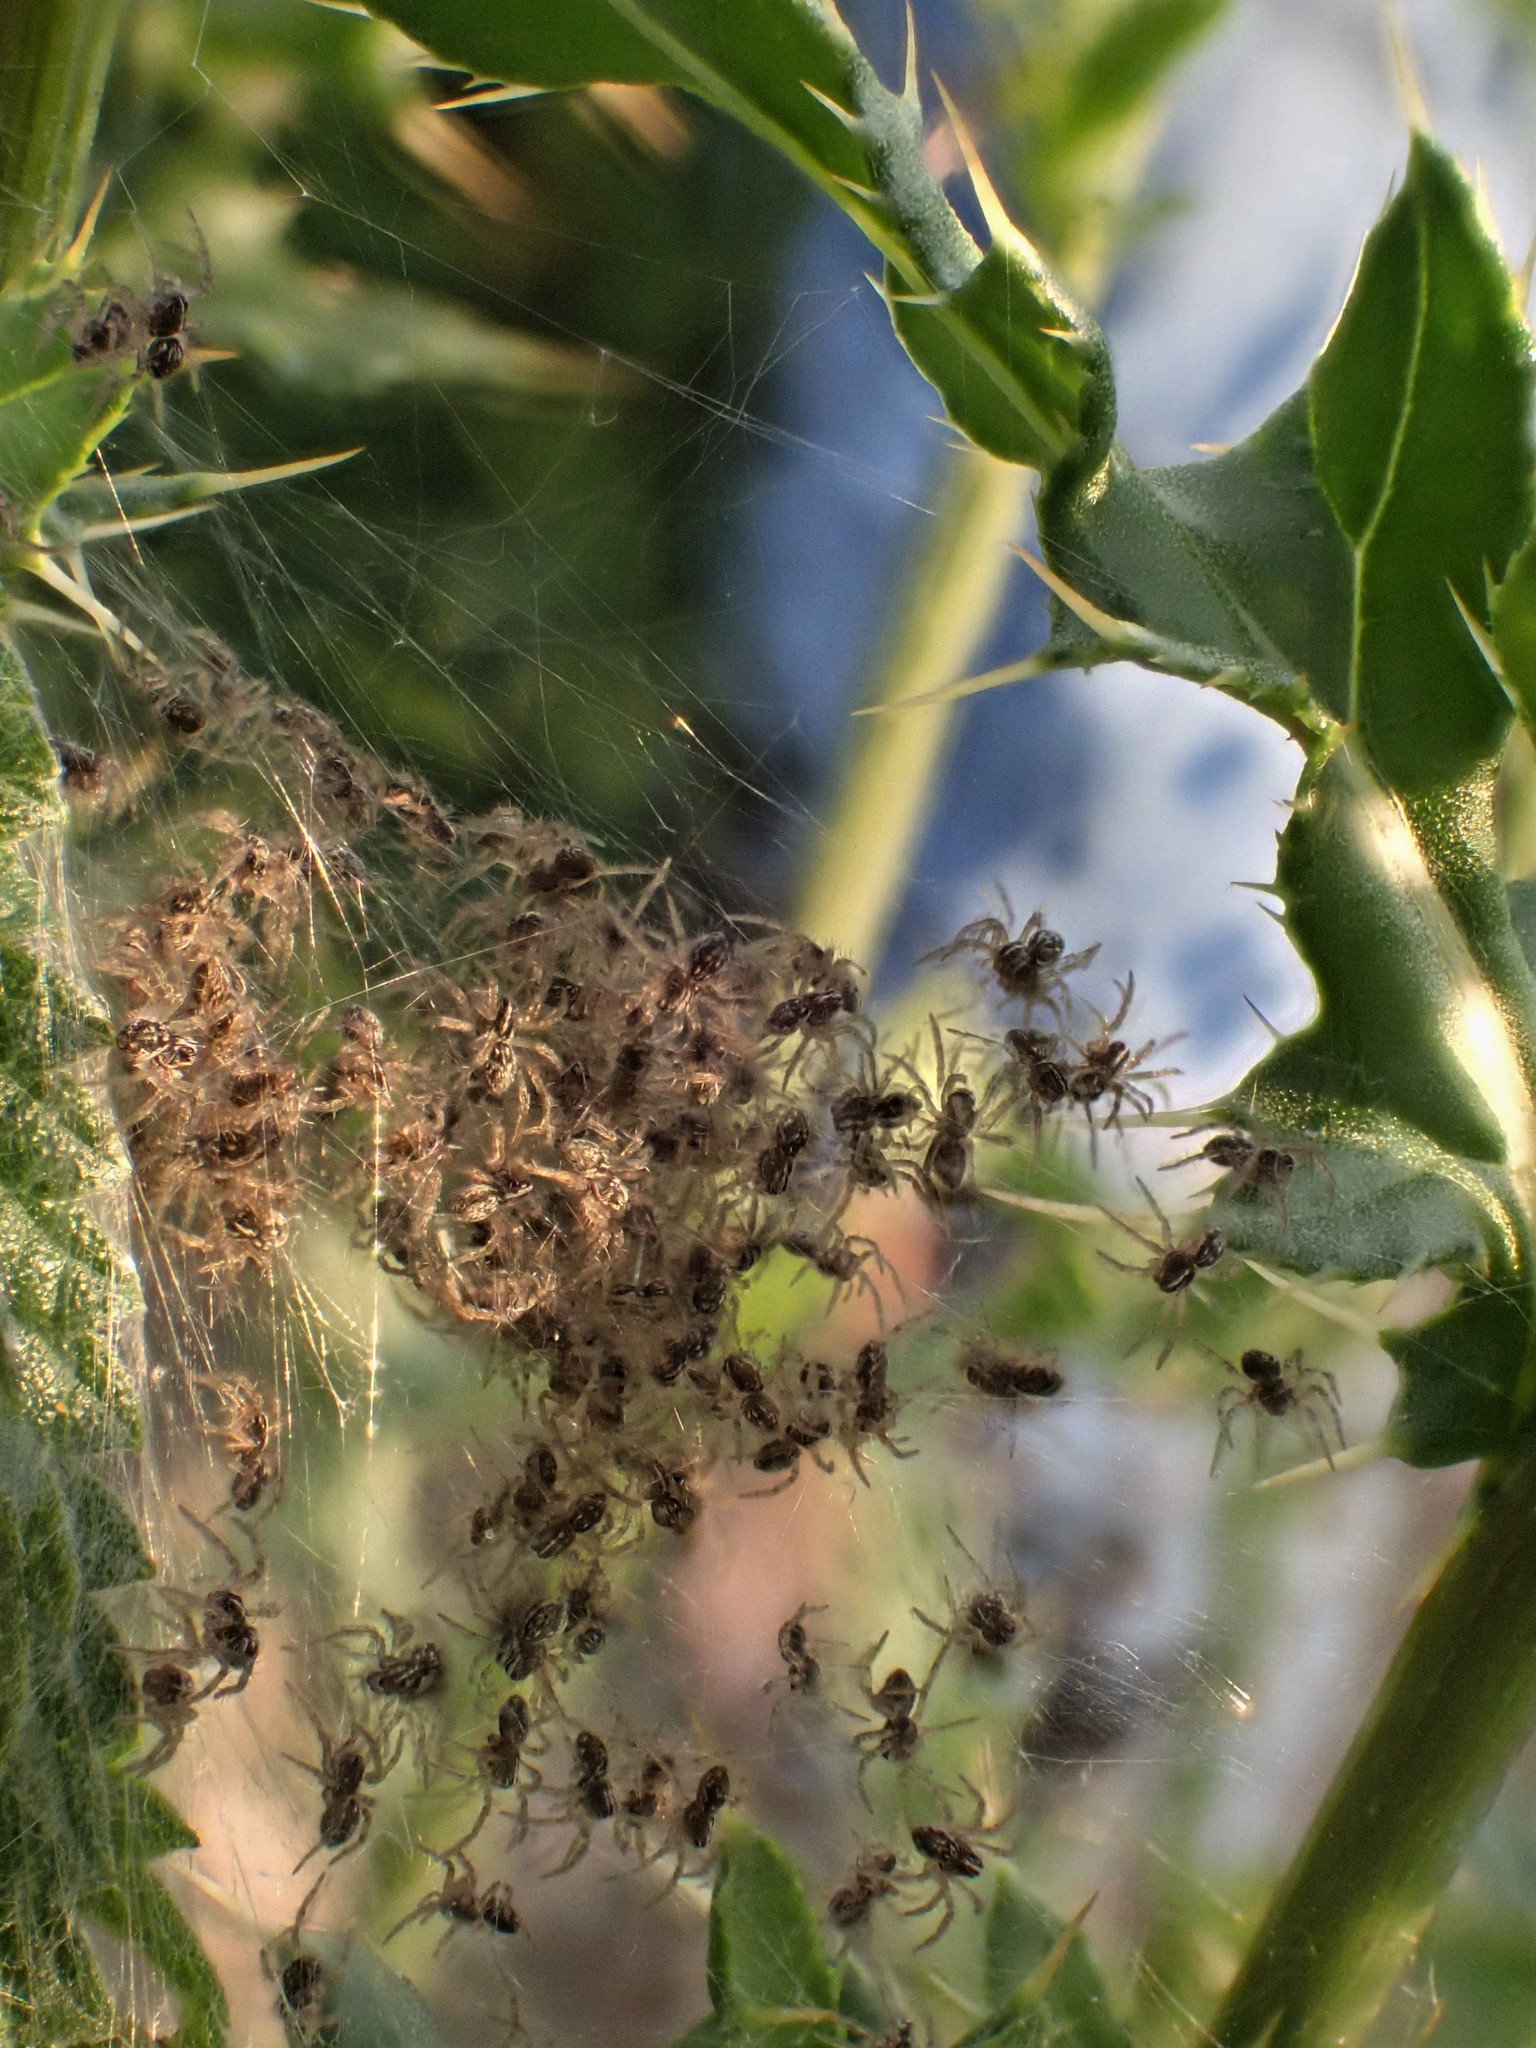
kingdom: Animalia
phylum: Arthropoda
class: Arachnida
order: Araneae
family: Pisauridae
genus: Pisaura
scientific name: Pisaura mirabilis
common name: Tent spider
